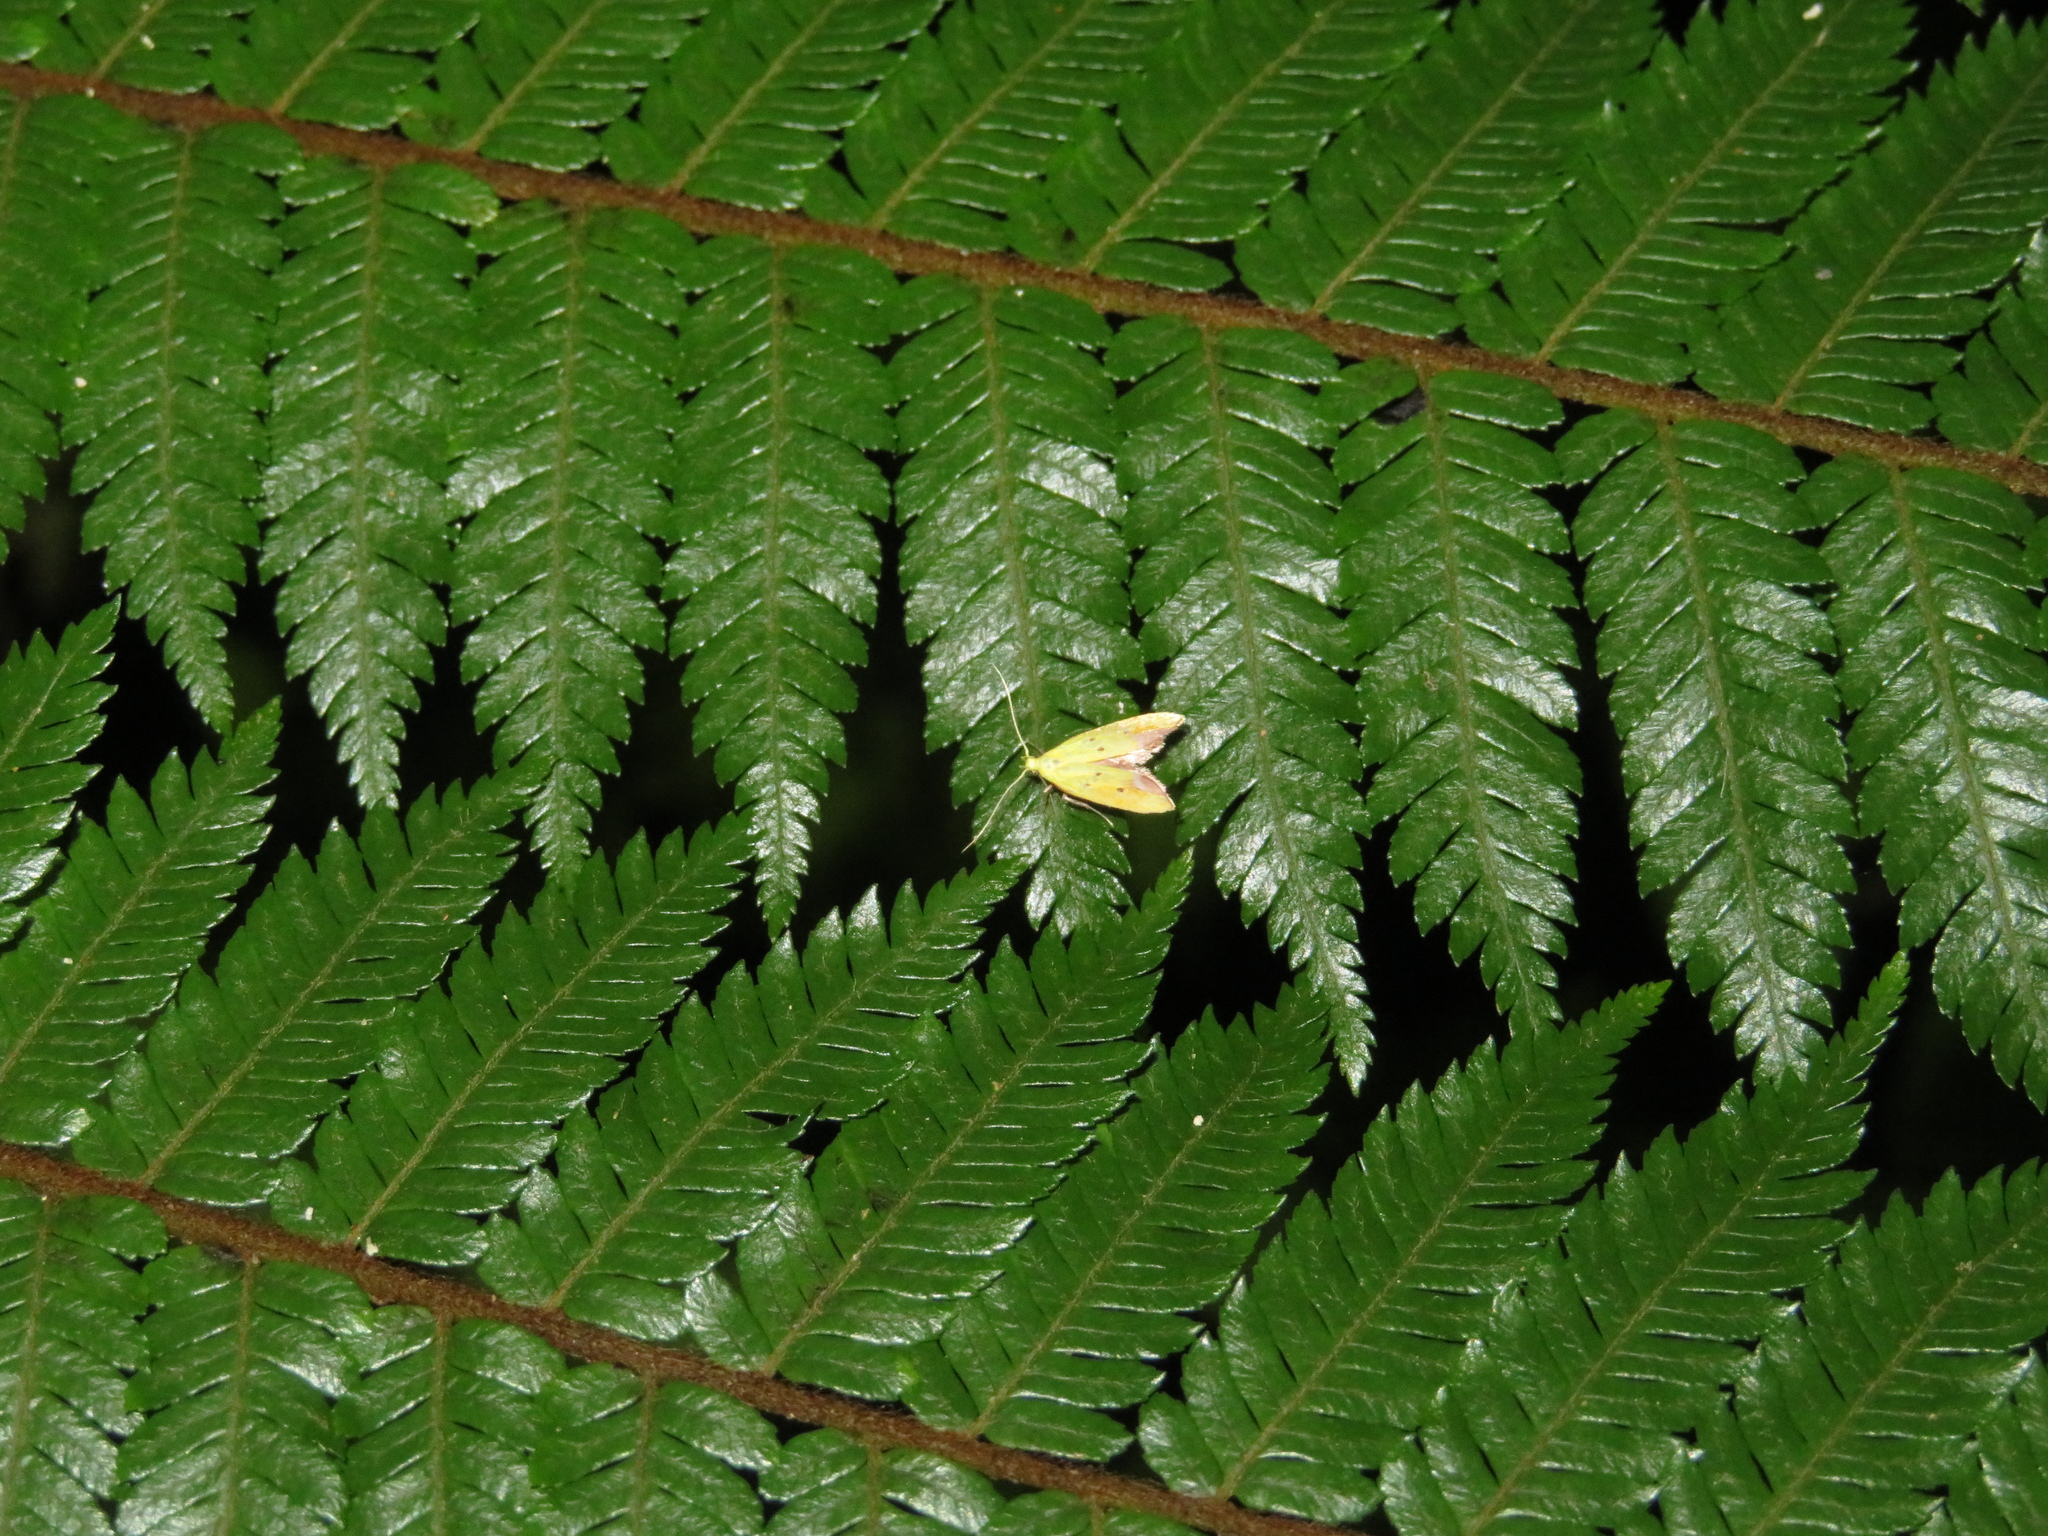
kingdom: Animalia
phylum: Arthropoda
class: Insecta
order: Lepidoptera
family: Oecophoridae
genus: Gymnobathra
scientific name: Gymnobathra flavidella
